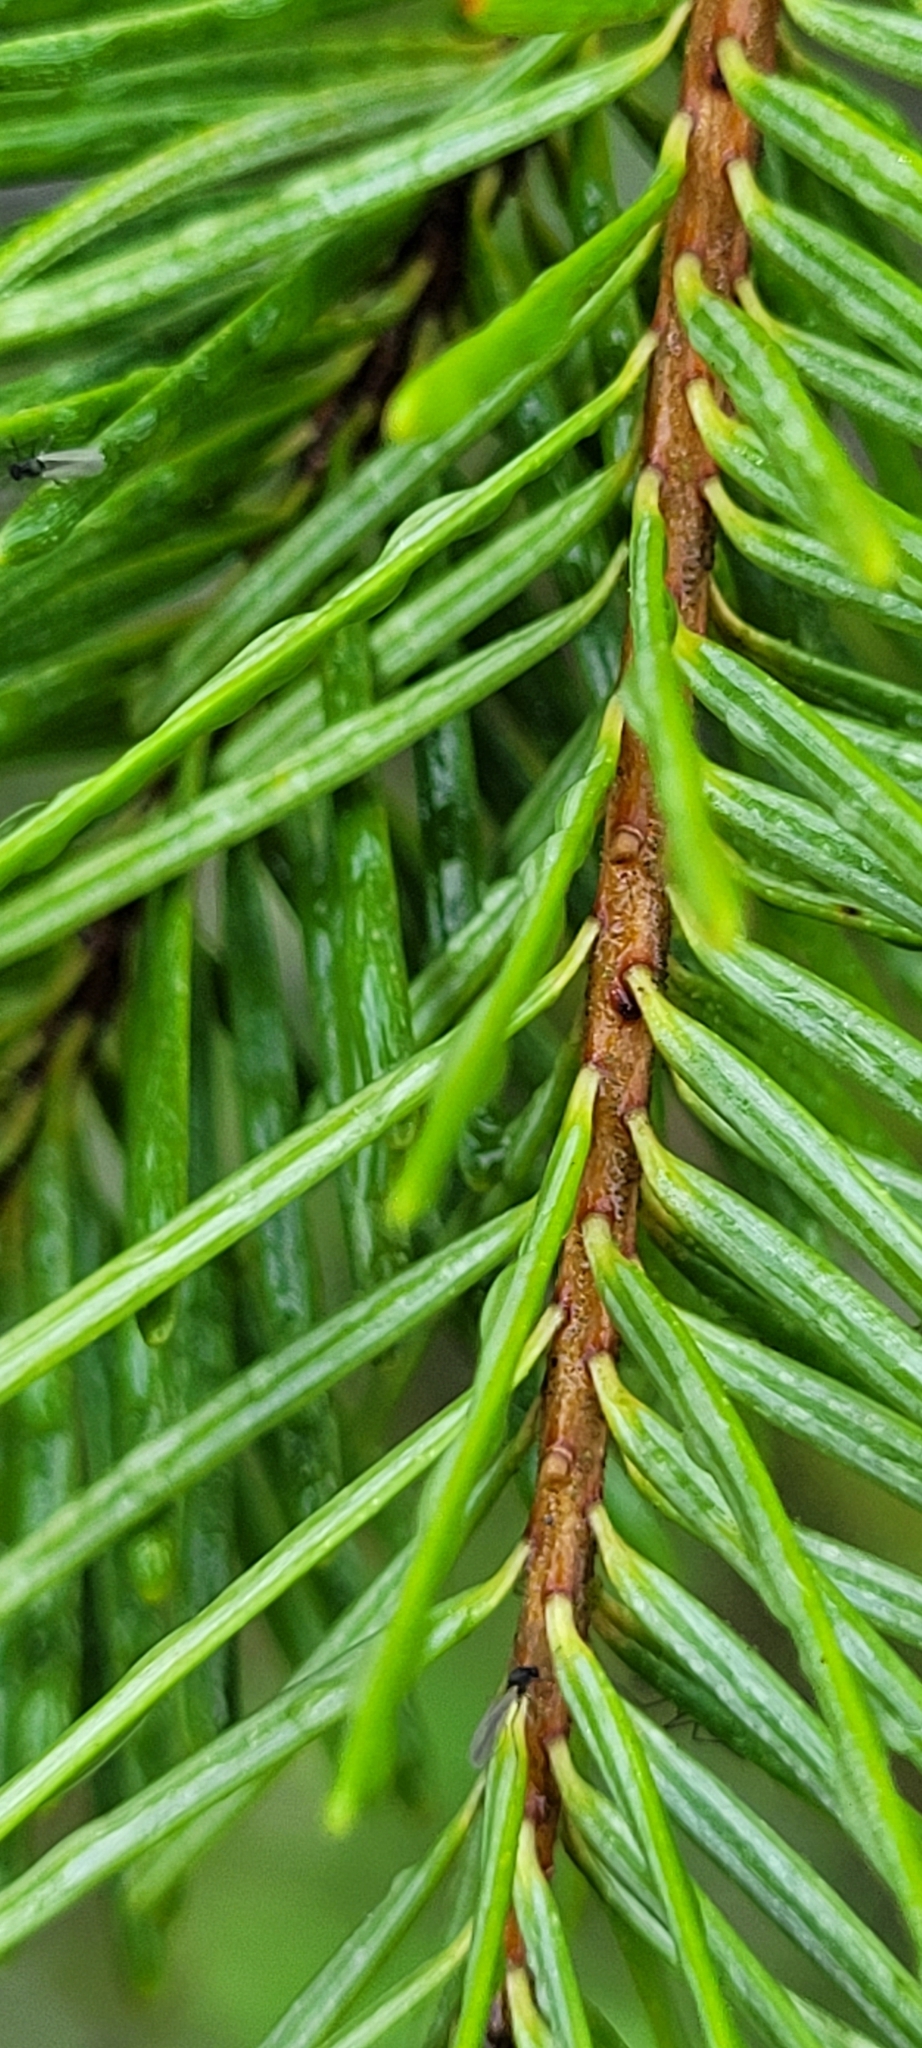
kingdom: Plantae
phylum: Tracheophyta
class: Pinopsida
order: Pinales
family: Pinaceae
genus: Pseudotsuga
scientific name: Pseudotsuga menziesii
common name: Douglas fir
